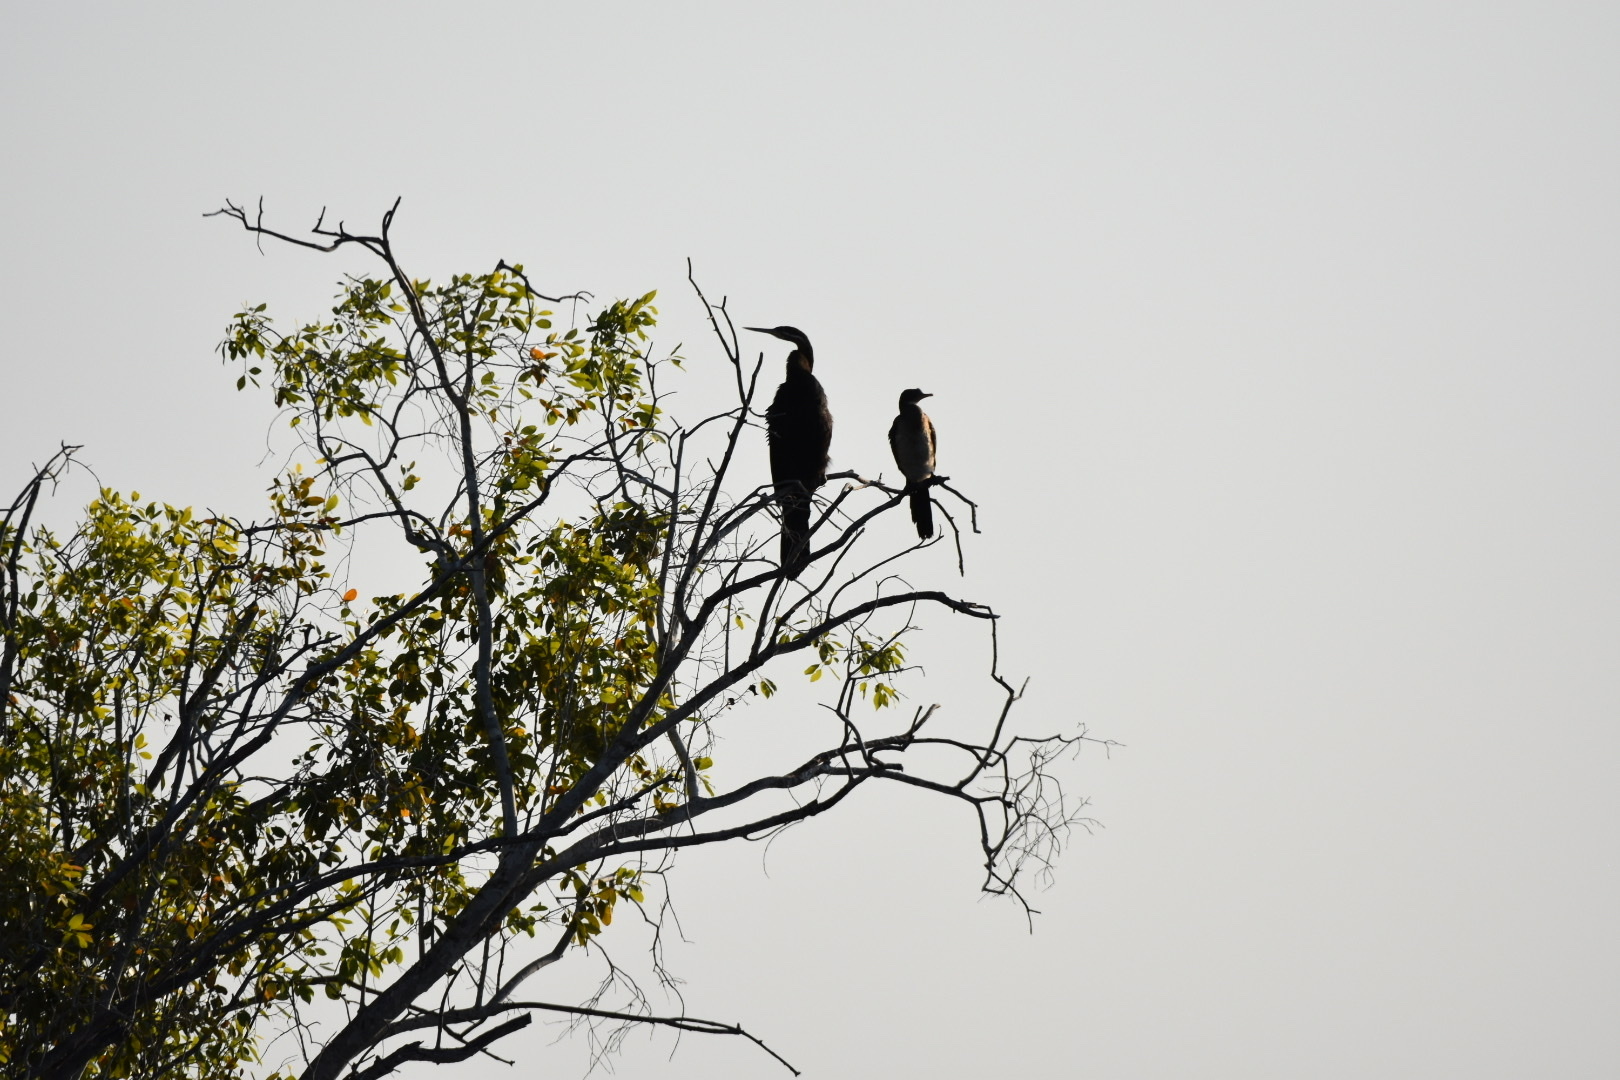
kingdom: Animalia
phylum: Chordata
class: Aves
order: Suliformes
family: Anhingidae
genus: Anhinga
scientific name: Anhinga rufa
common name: African darter
